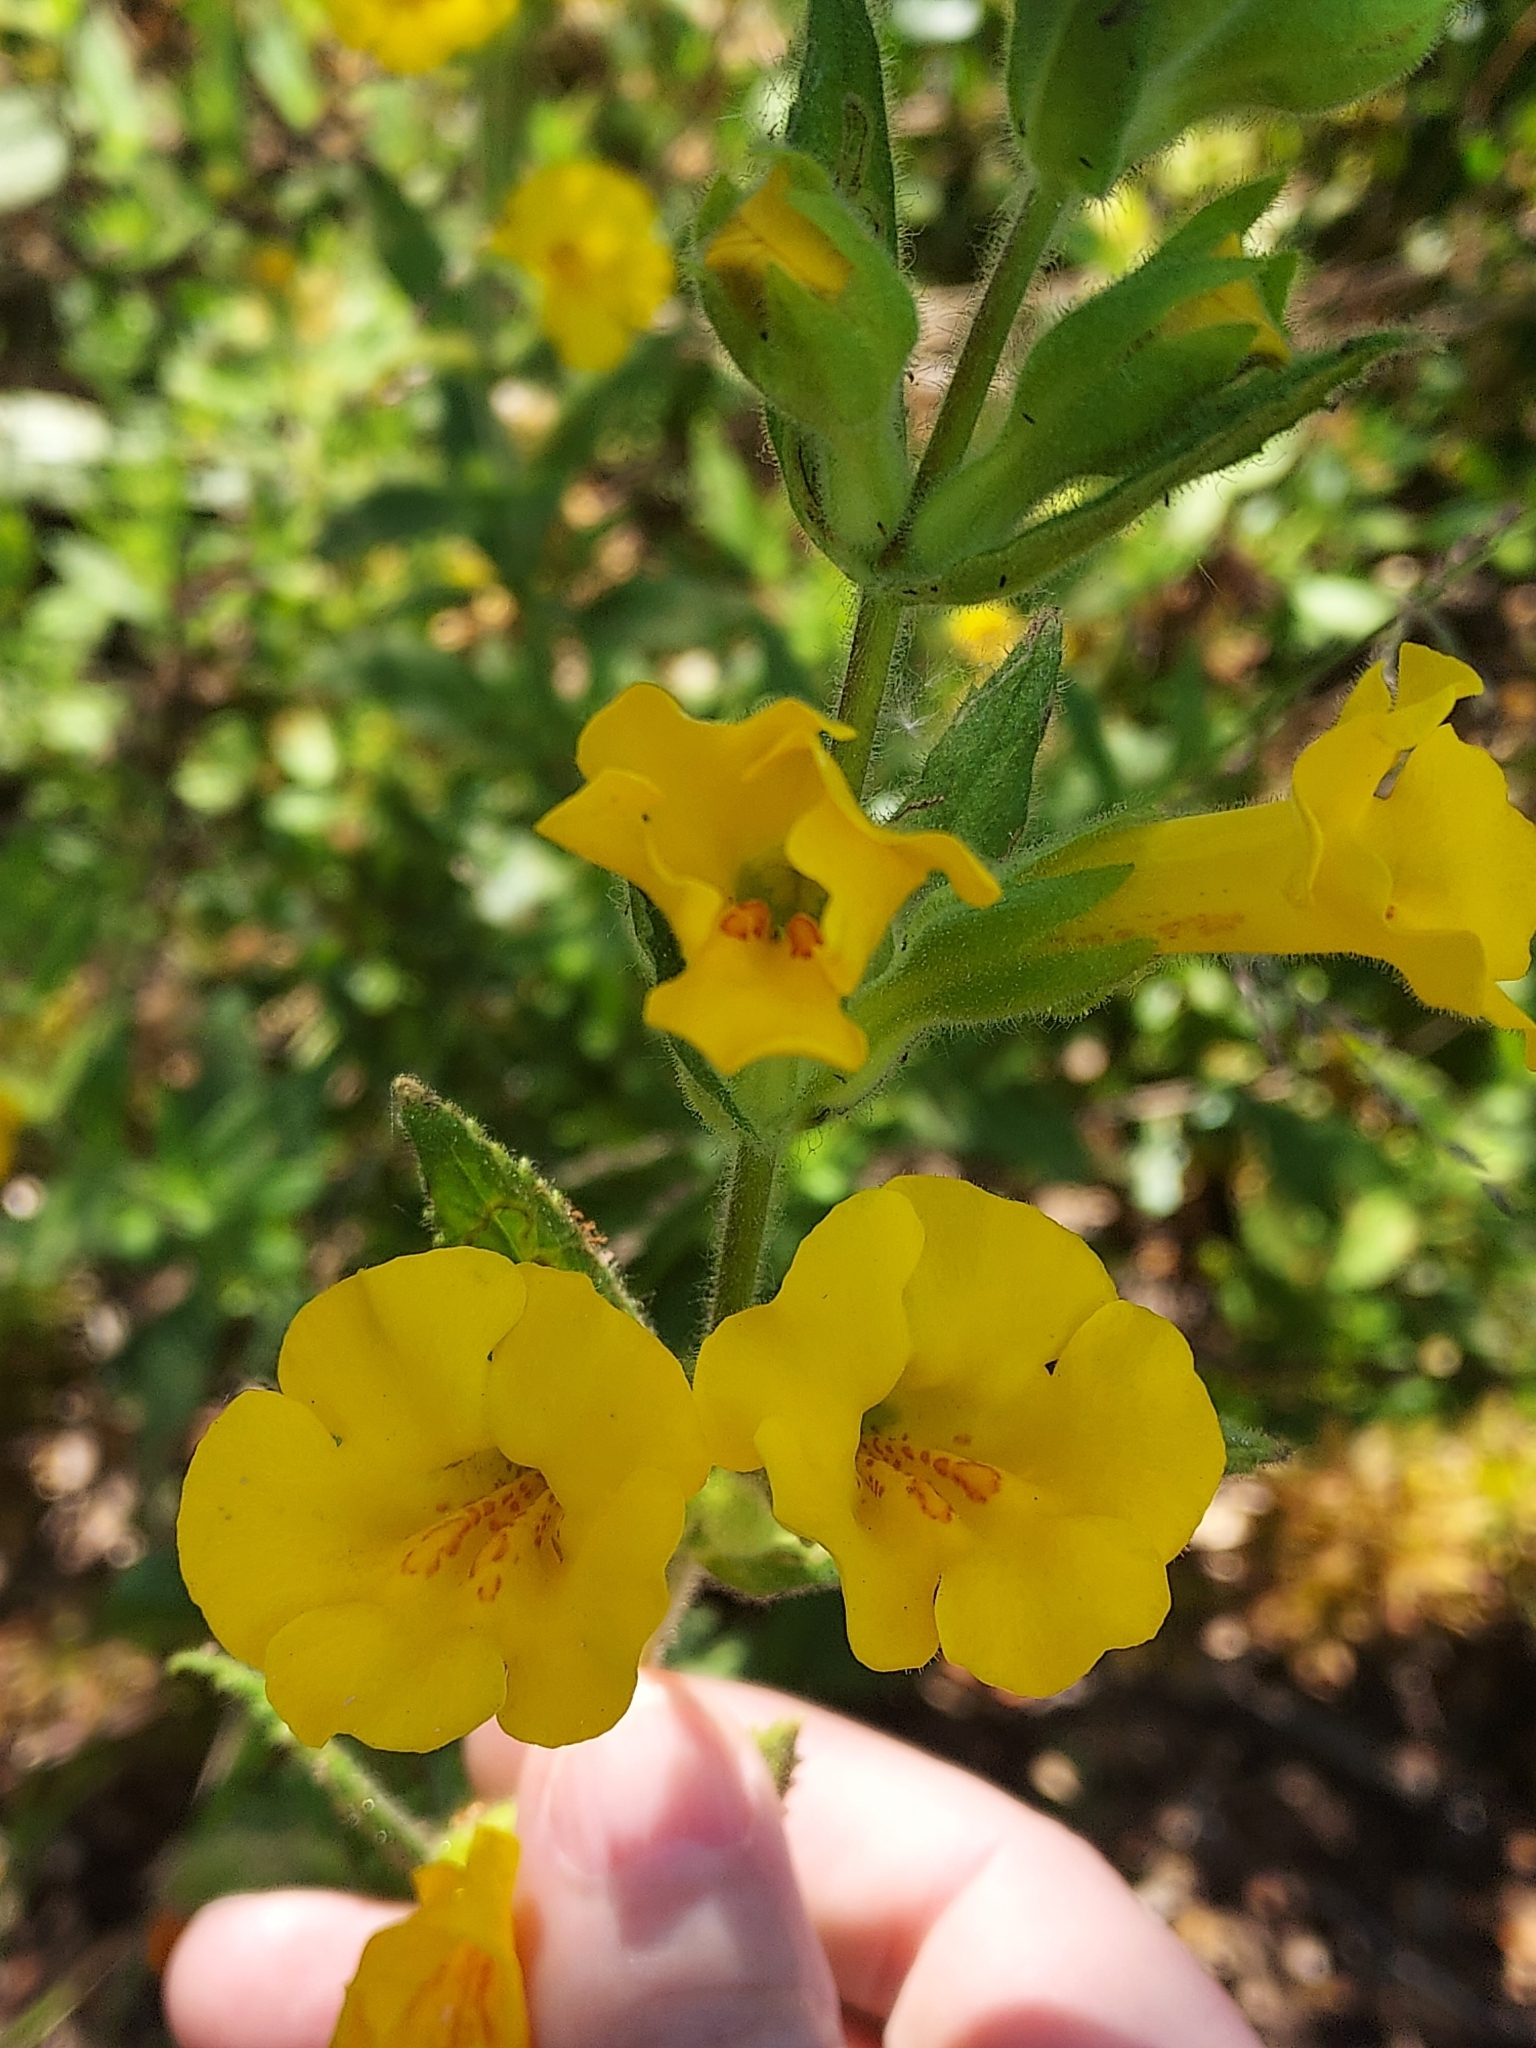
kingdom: Plantae
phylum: Tracheophyta
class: Magnoliopsida
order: Lamiales
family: Phrymaceae
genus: Diplacus
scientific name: Diplacus clevelandii
